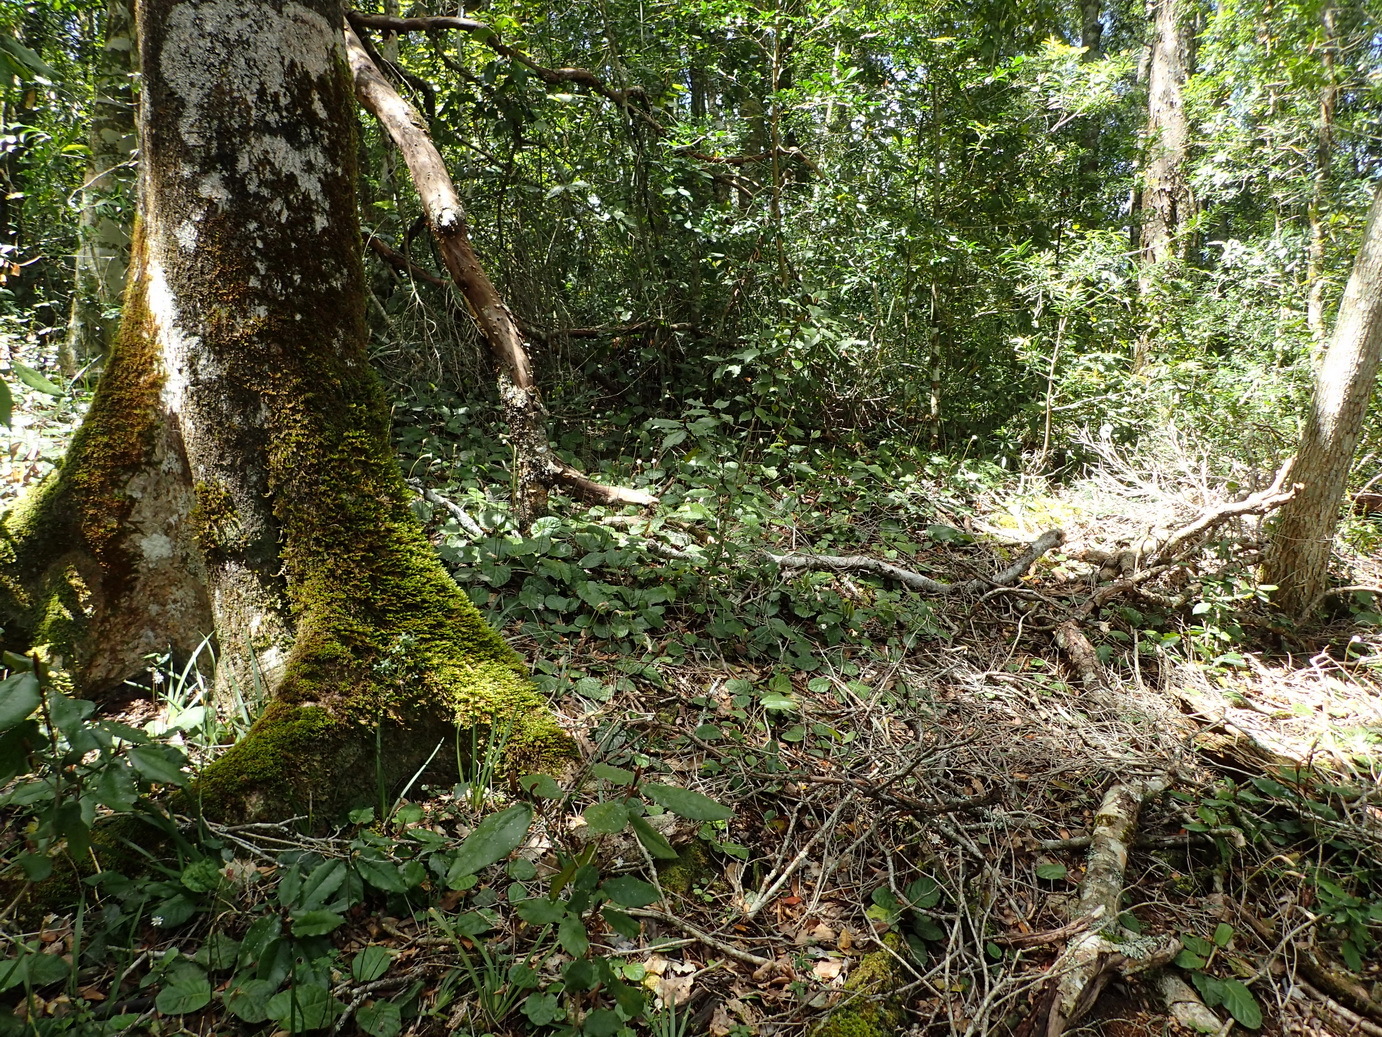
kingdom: Plantae
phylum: Tracheophyta
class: Magnoliopsida
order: Asterales
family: Asteraceae
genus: Piloselloides
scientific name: Piloselloides cordata
